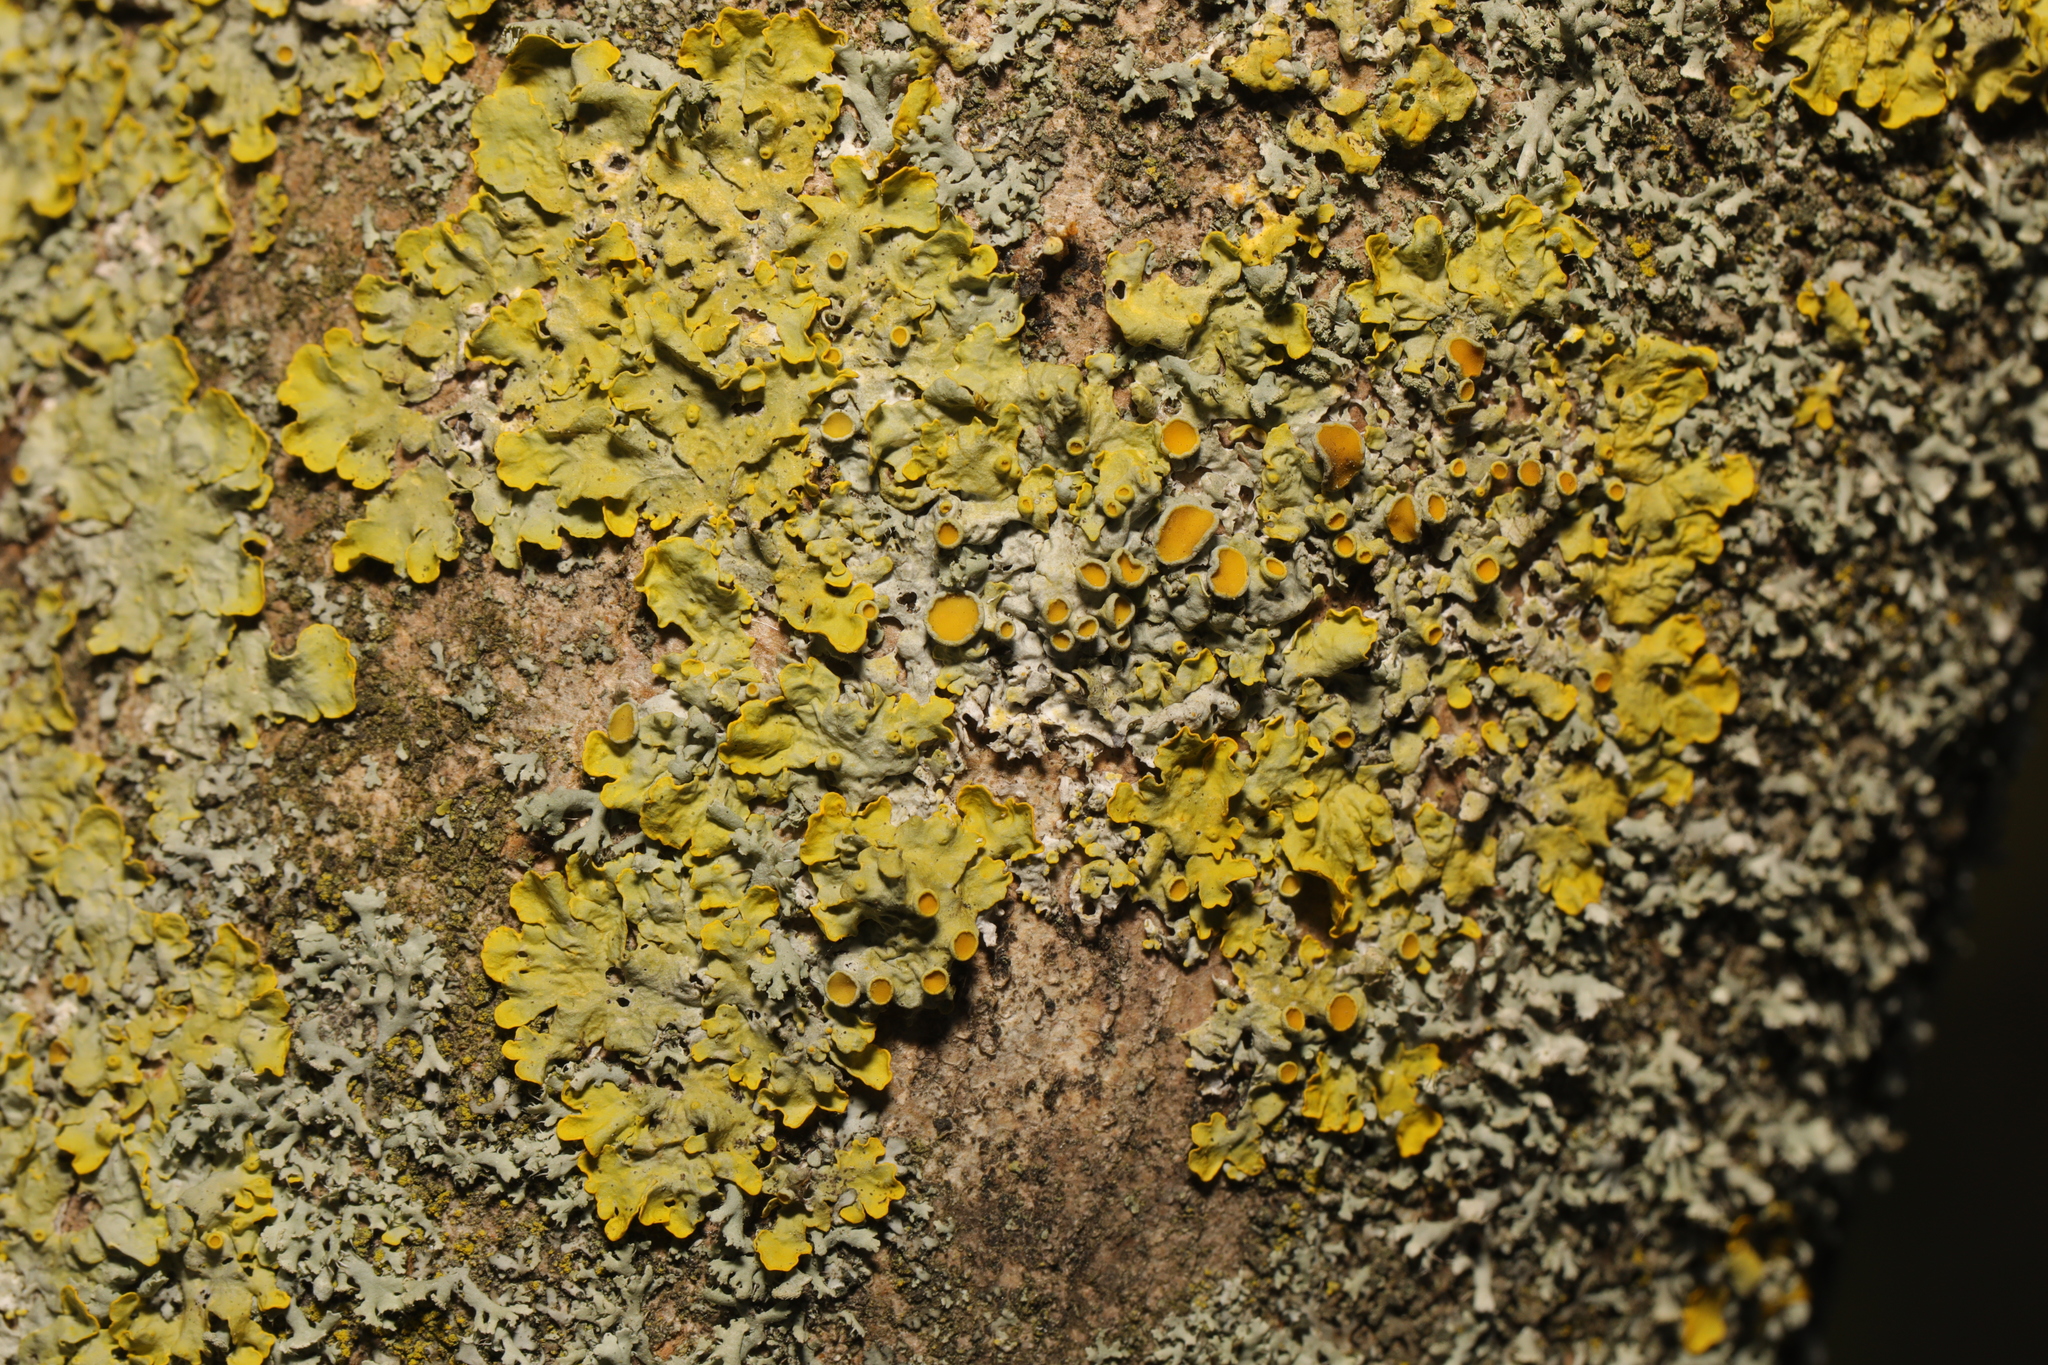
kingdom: Fungi
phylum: Ascomycota
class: Lecanoromycetes
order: Teloschistales
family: Teloschistaceae
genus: Xanthoria
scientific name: Xanthoria parietina
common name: Common orange lichen
